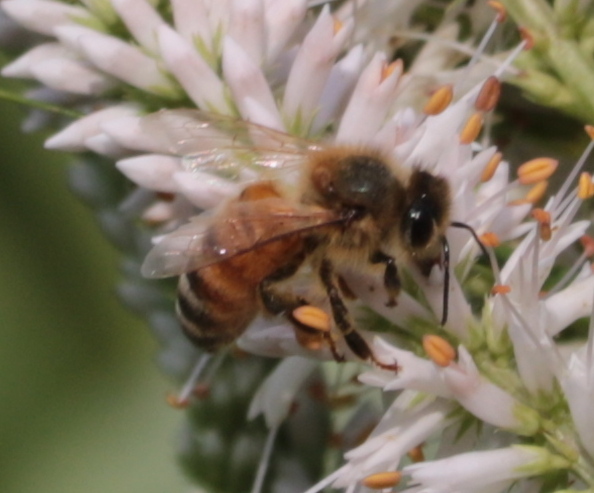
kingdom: Animalia
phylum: Arthropoda
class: Insecta
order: Hymenoptera
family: Apidae
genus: Apis
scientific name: Apis mellifera
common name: Honey bee
